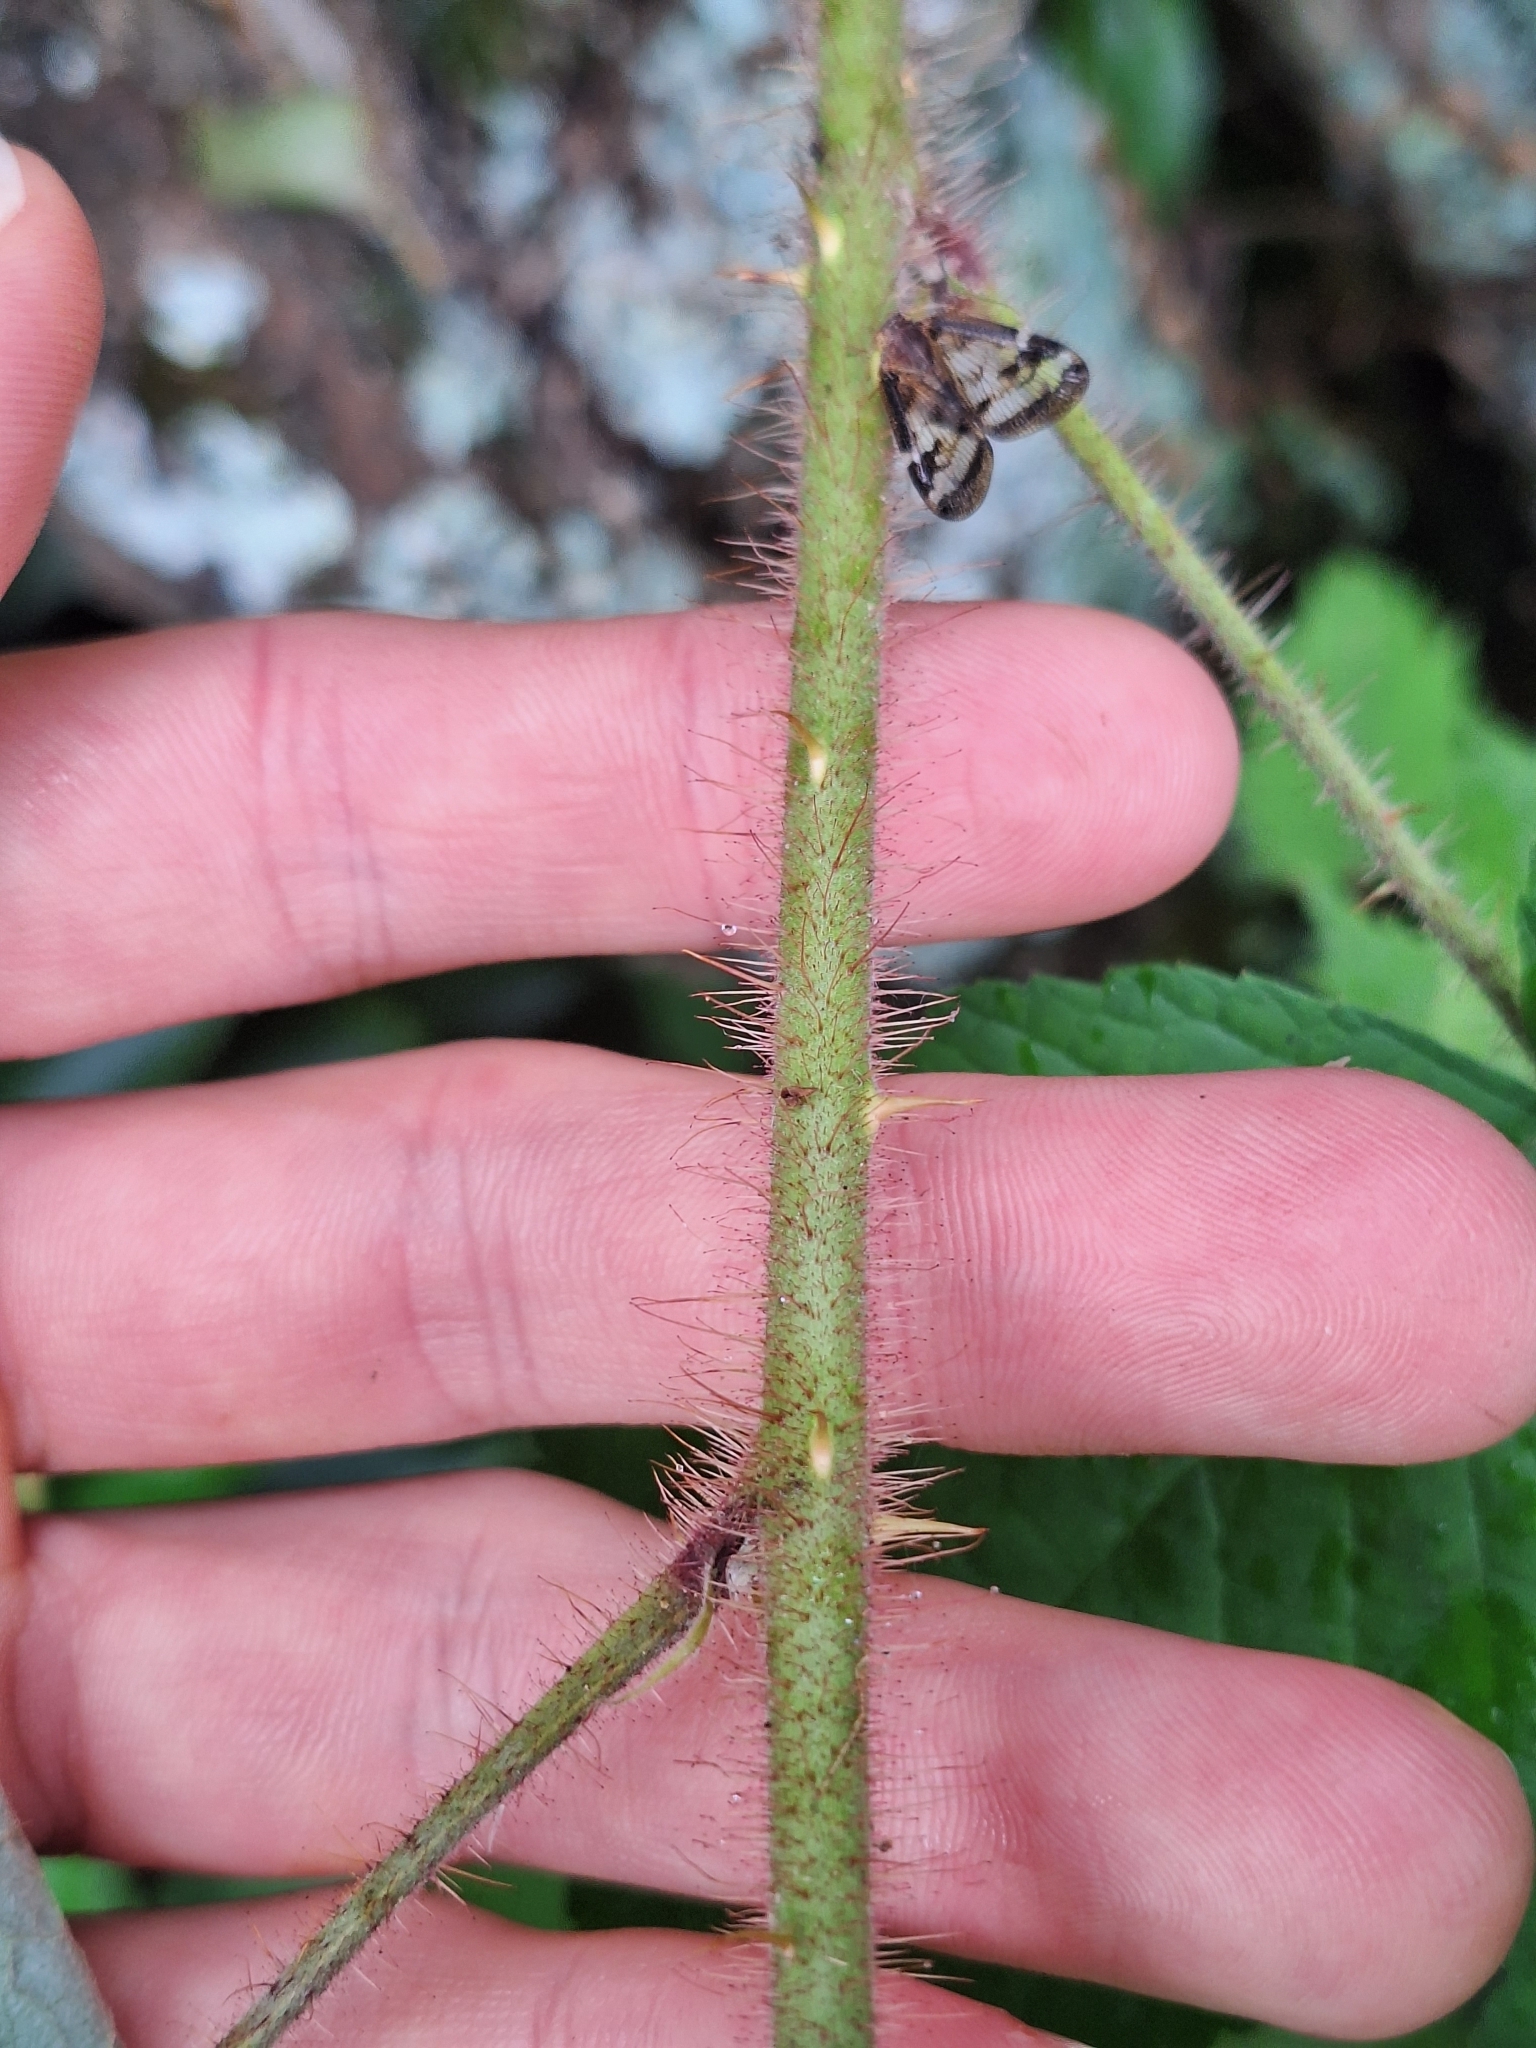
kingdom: Plantae
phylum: Tracheophyta
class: Magnoliopsida
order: Rosales
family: Rosaceae
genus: Rubus
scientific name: Rubus phoenicolasius
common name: Japanese wineberry
